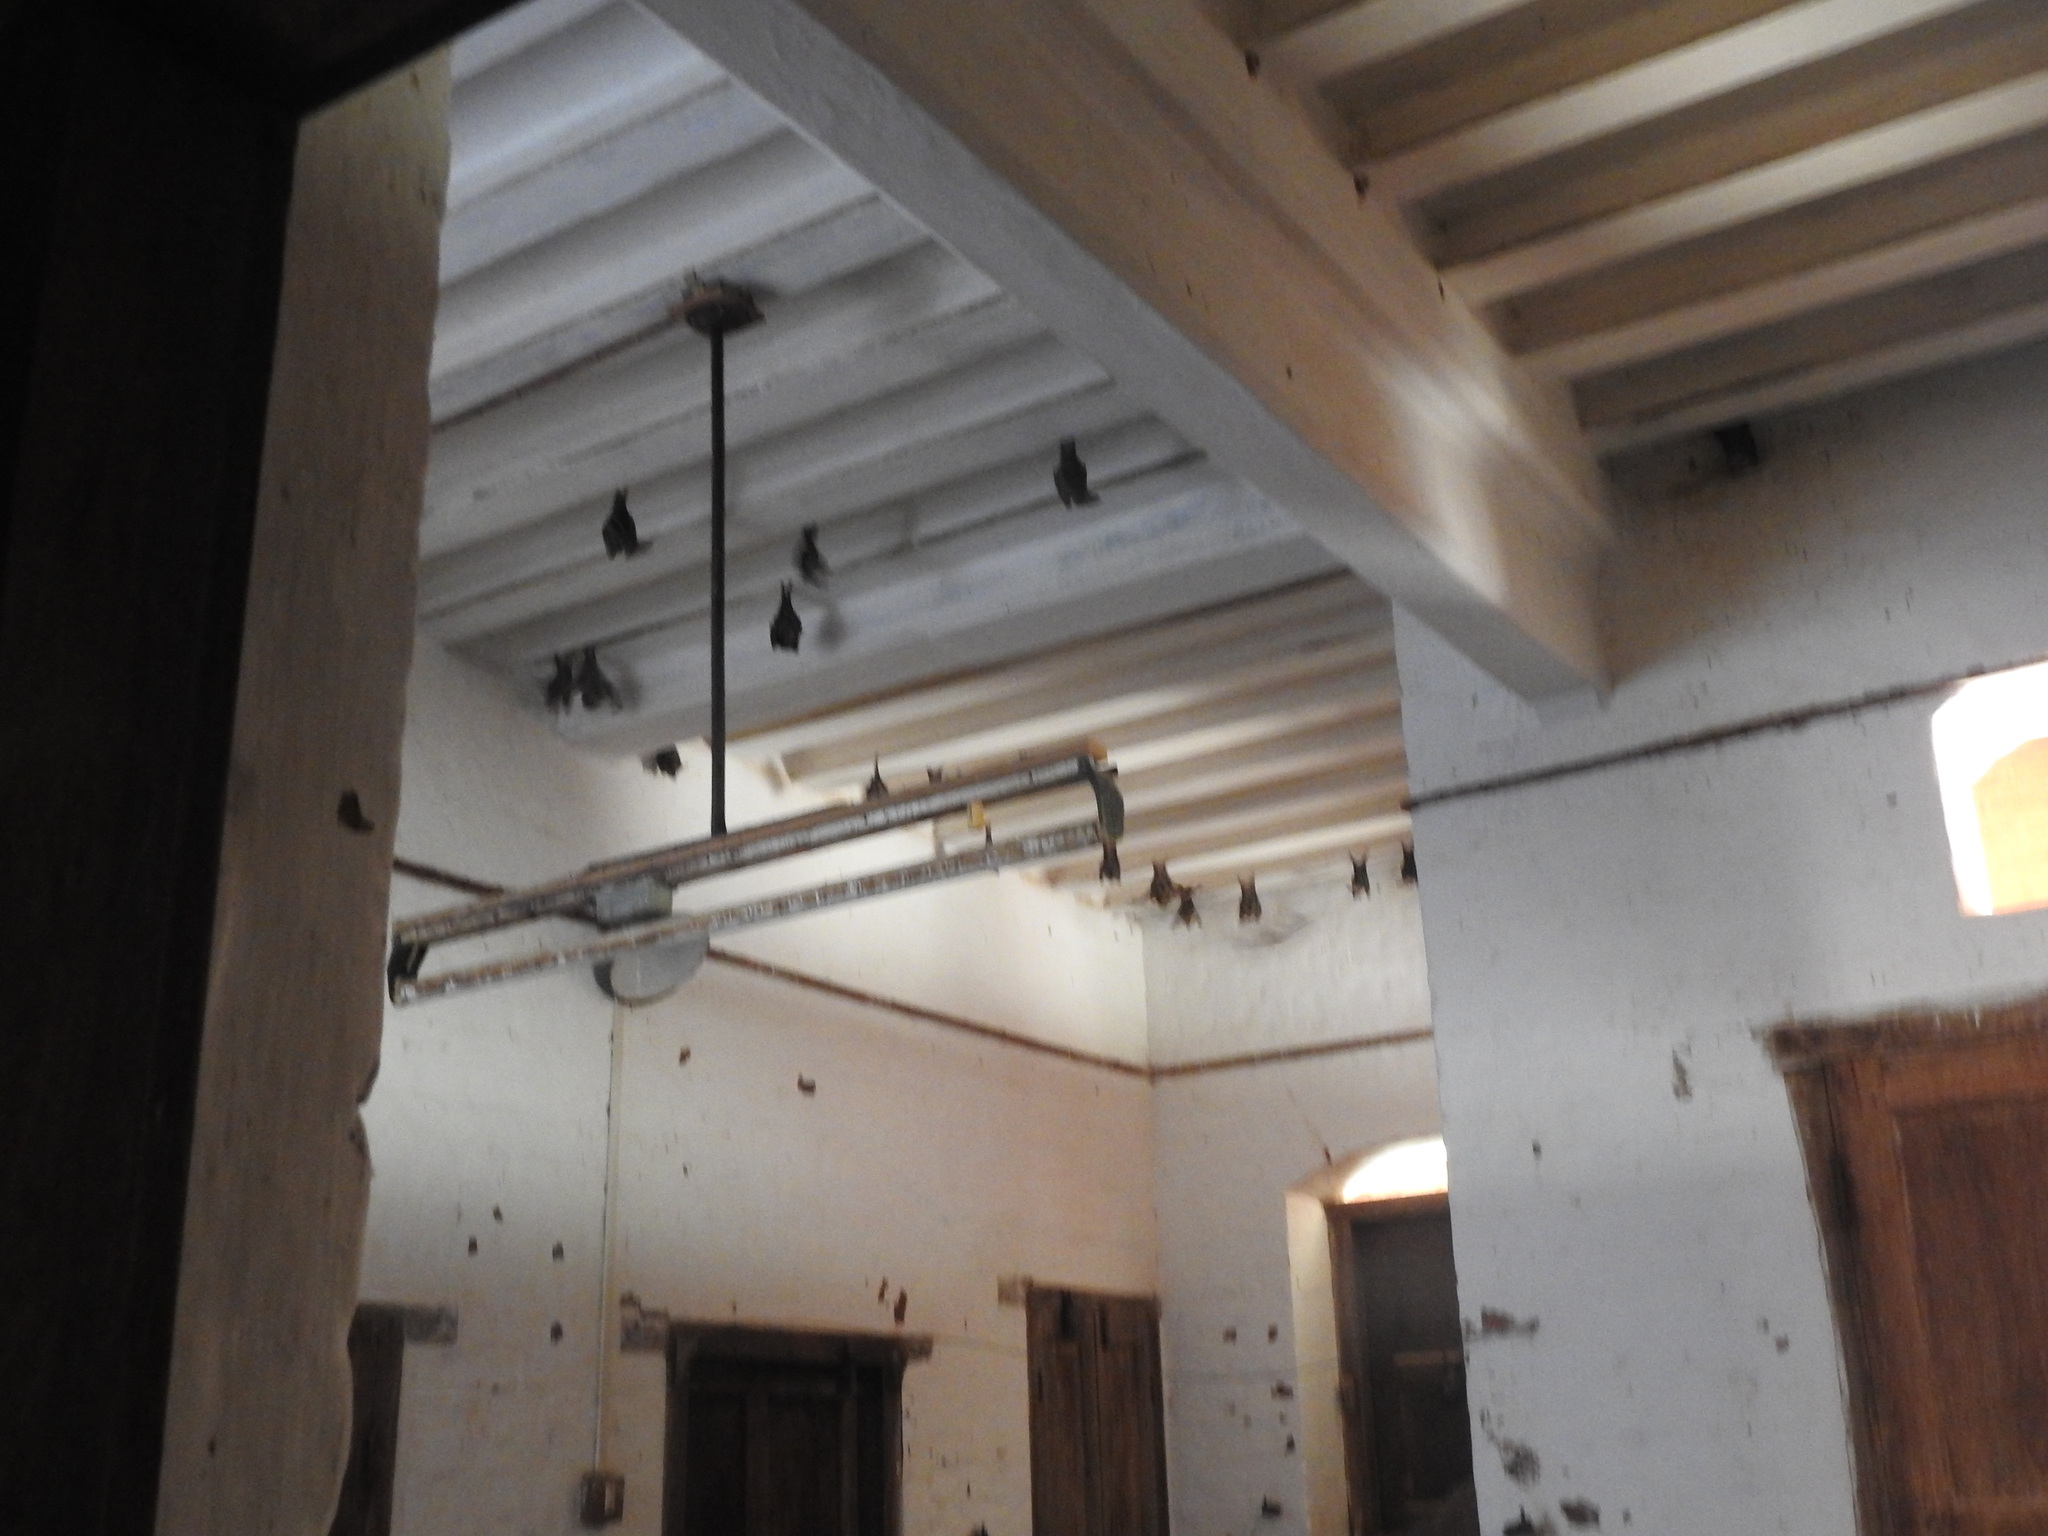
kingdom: Animalia
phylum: Chordata
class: Mammalia
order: Chiroptera
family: Megadermatidae
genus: Lyroderma
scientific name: Lyroderma lyra
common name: Greater false vampire bat
